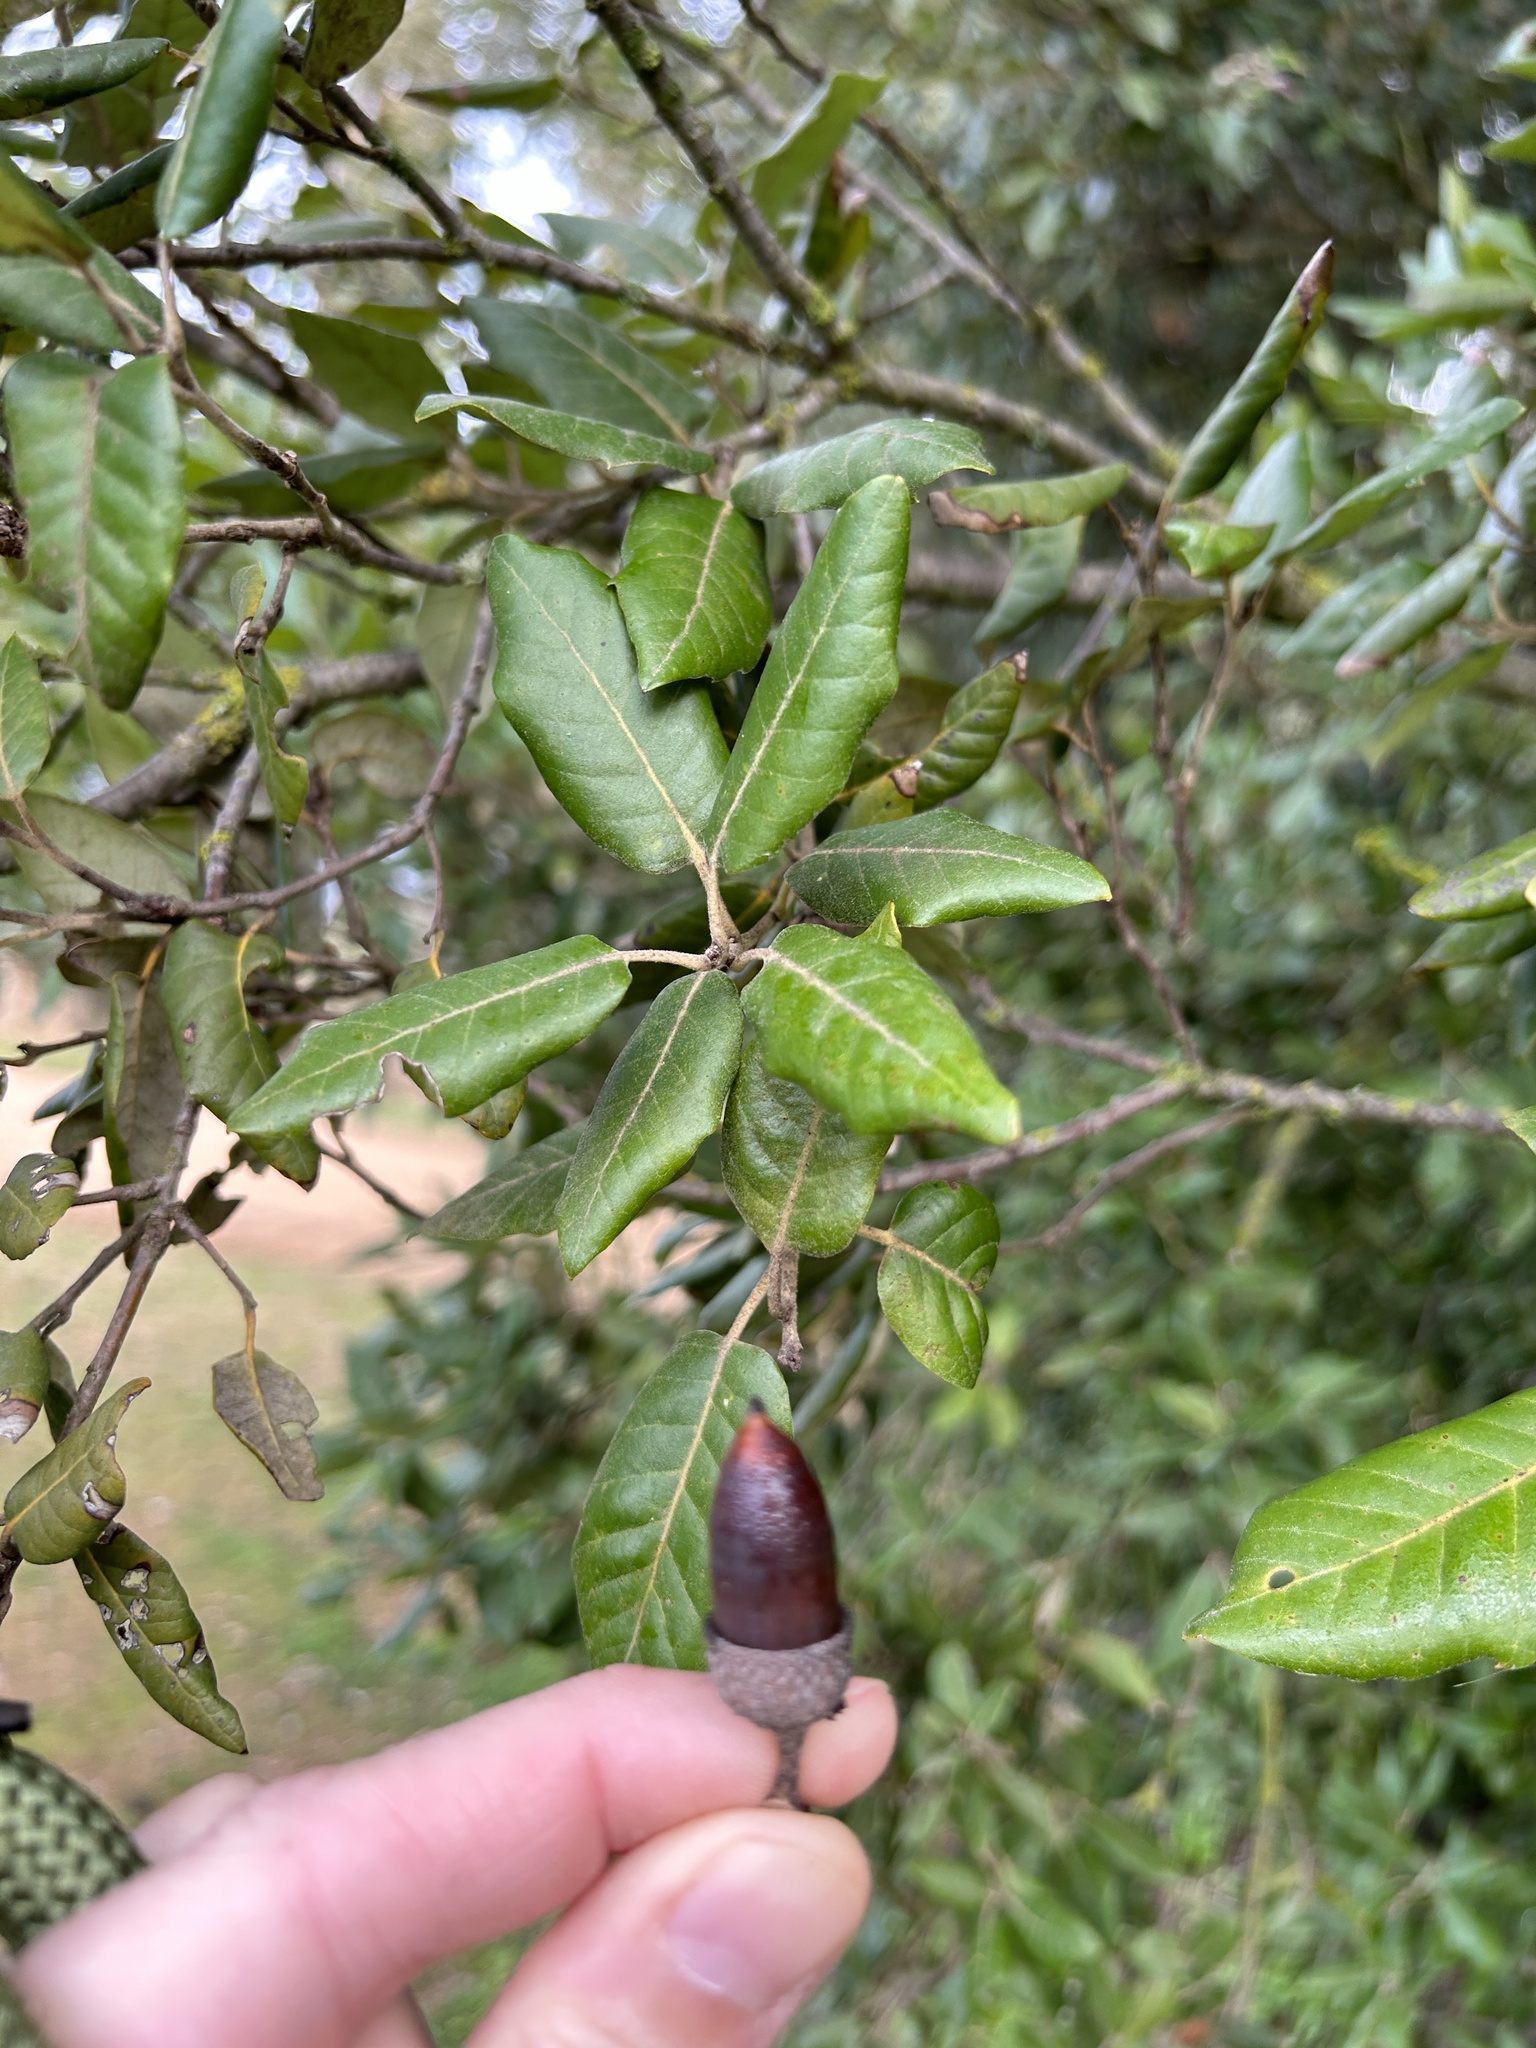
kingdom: Plantae
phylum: Tracheophyta
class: Magnoliopsida
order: Fagales
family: Fagaceae
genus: Quercus
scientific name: Quercus ilex
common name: Evergreen oak
